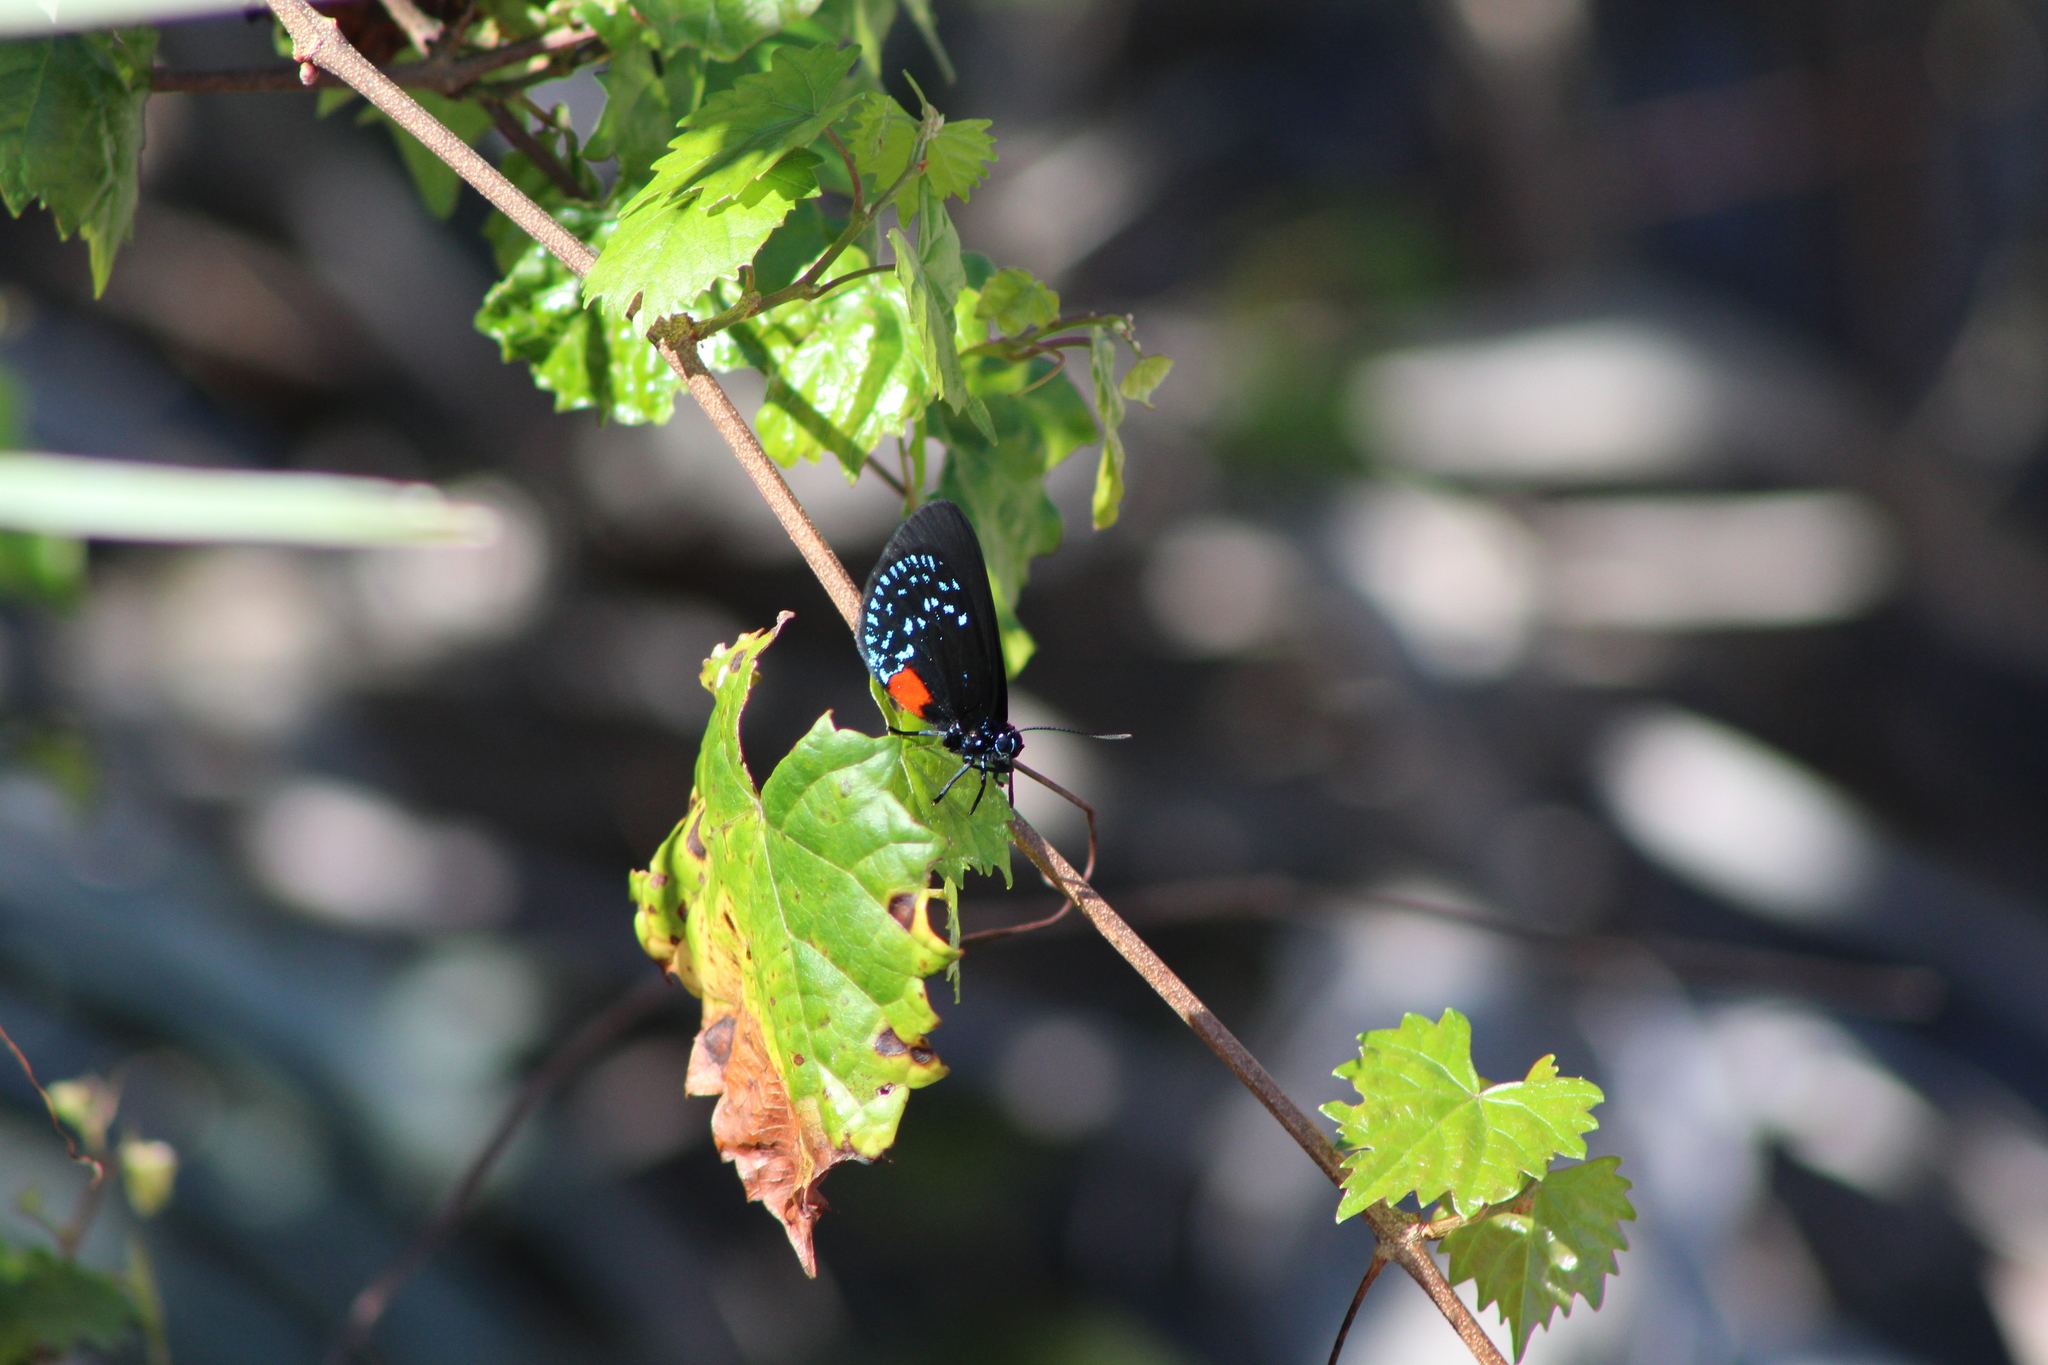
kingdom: Animalia
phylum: Arthropoda
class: Insecta
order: Lepidoptera
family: Lycaenidae
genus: Eumaeus
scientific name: Eumaeus atala
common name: Atala
